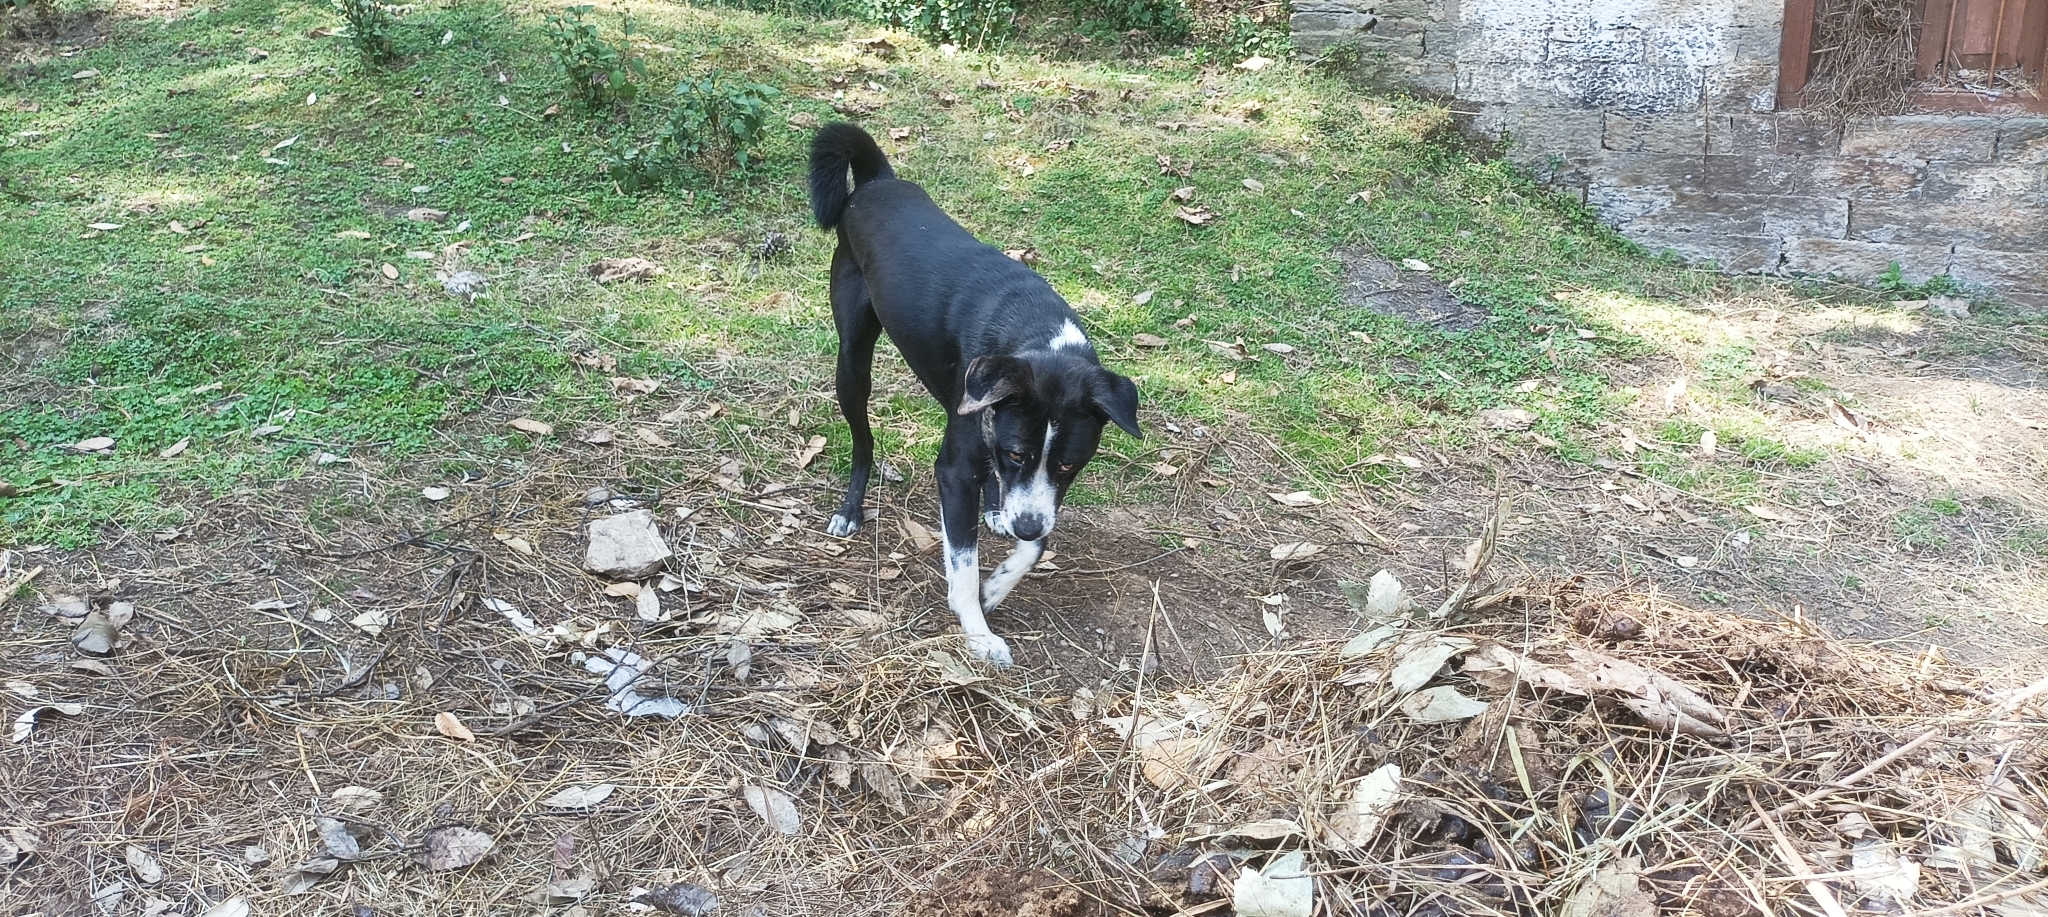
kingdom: Animalia
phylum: Chordata
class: Mammalia
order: Carnivora
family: Canidae
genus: Canis
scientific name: Canis lupus
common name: Gray wolf
